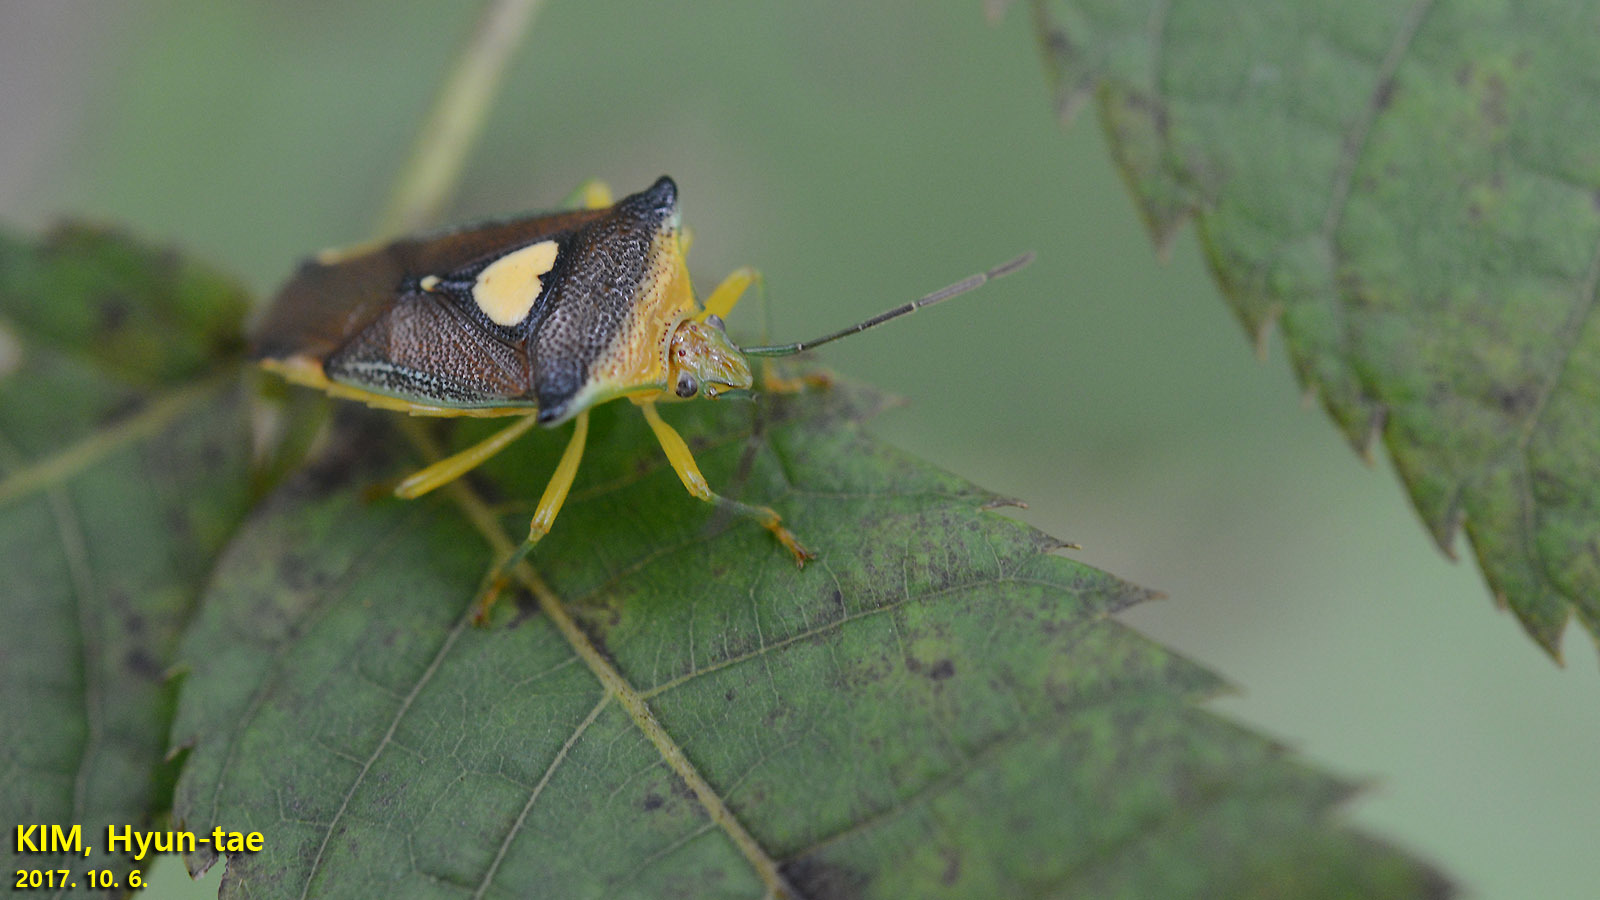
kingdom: Animalia
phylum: Arthropoda
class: Insecta
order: Hemiptera
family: Acanthosomatidae
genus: Sastragala
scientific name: Sastragala esakii
